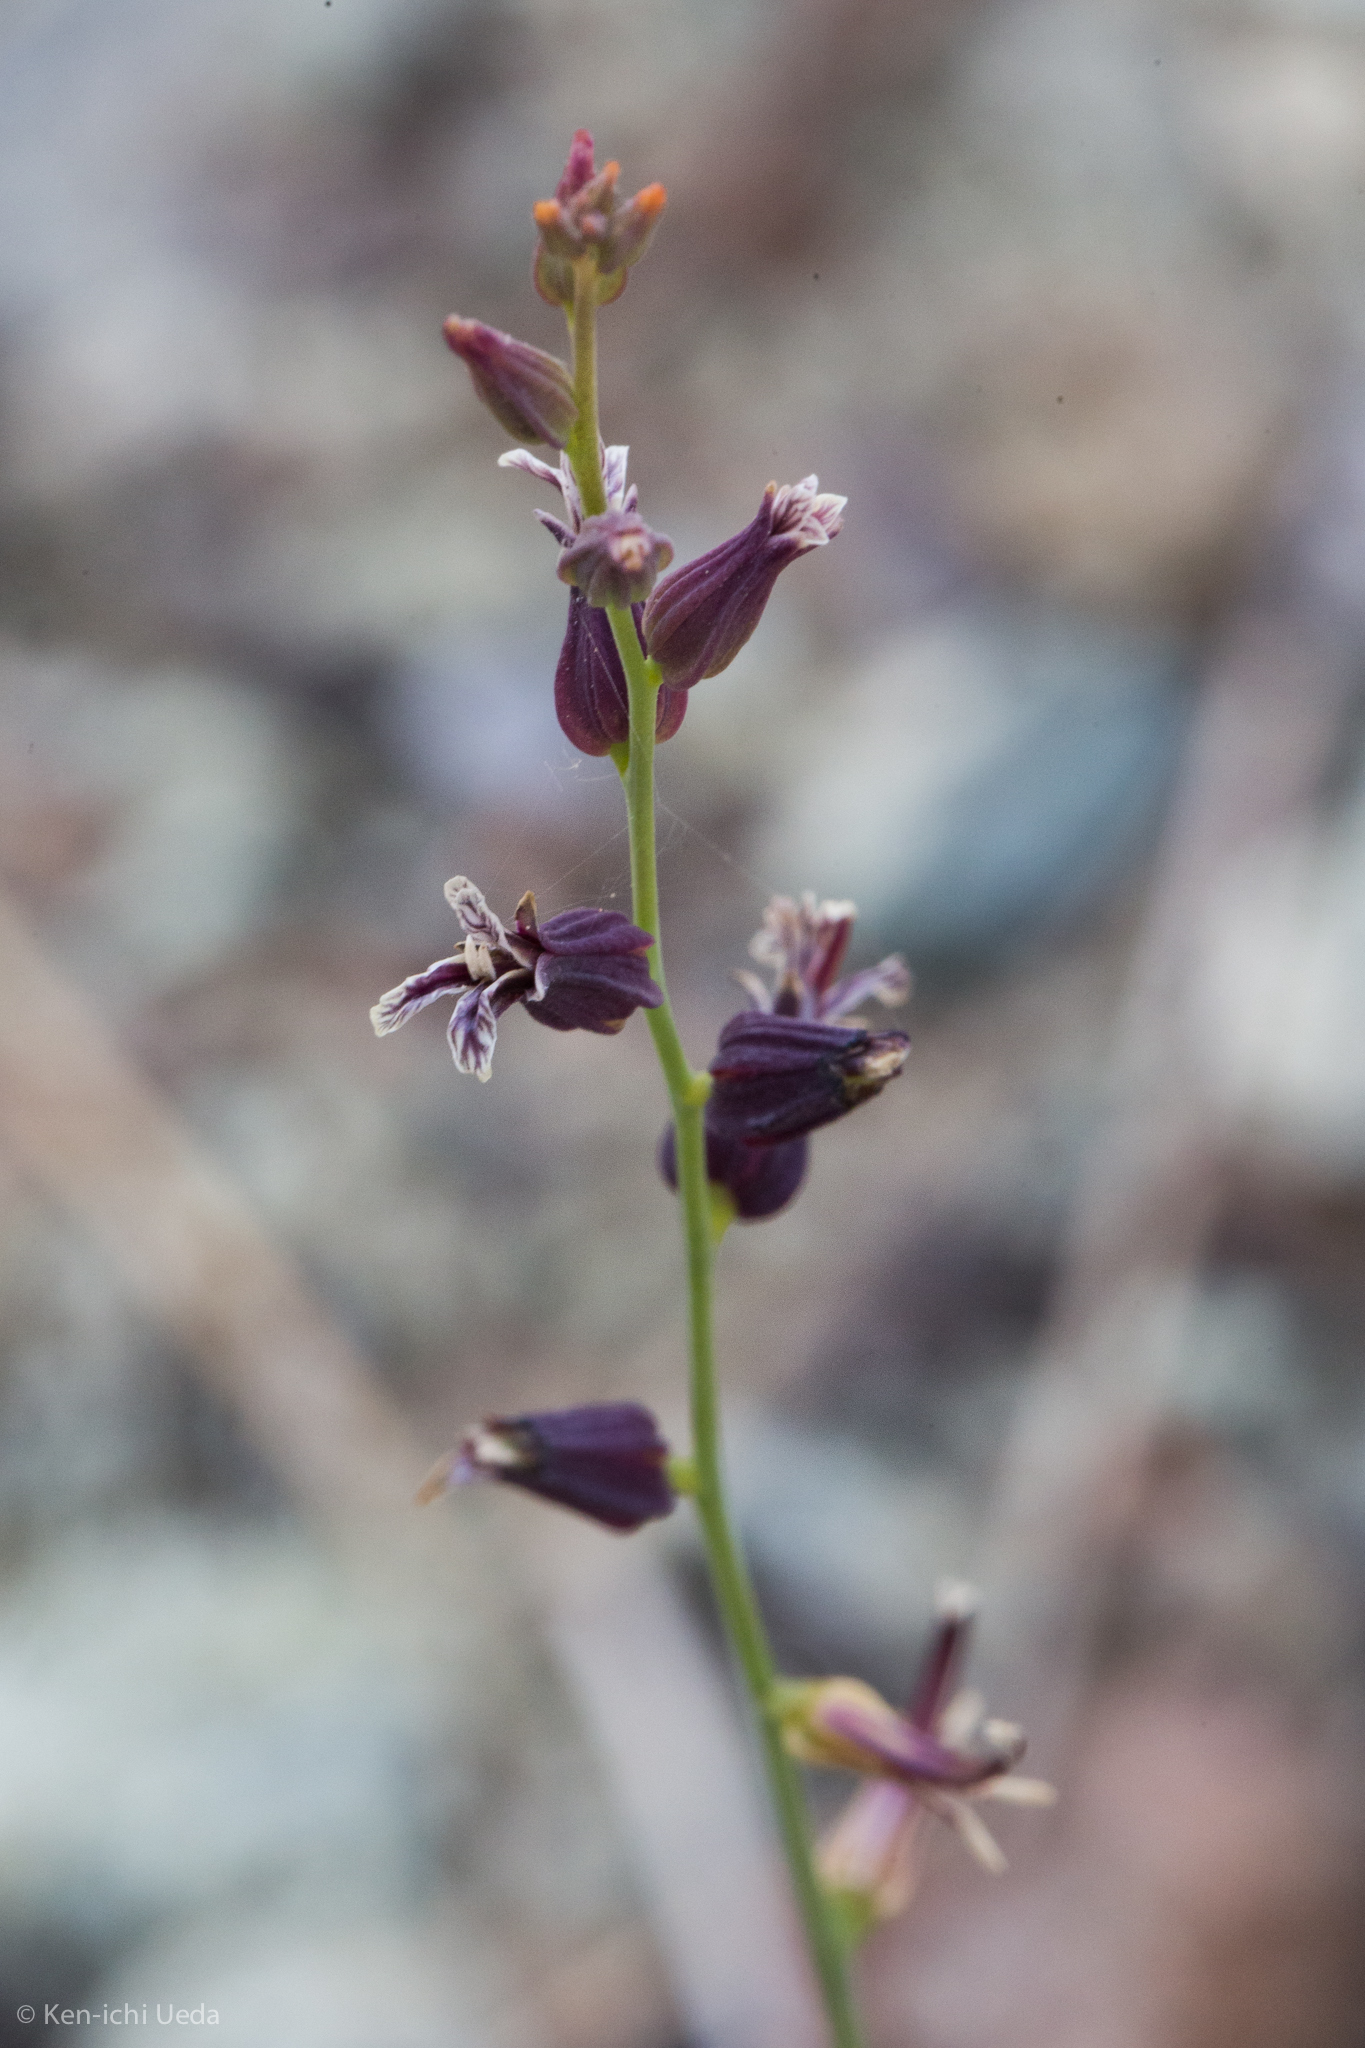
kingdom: Plantae
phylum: Tracheophyta
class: Magnoliopsida
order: Brassicales
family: Brassicaceae
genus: Streptanthus
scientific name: Streptanthus breweri
